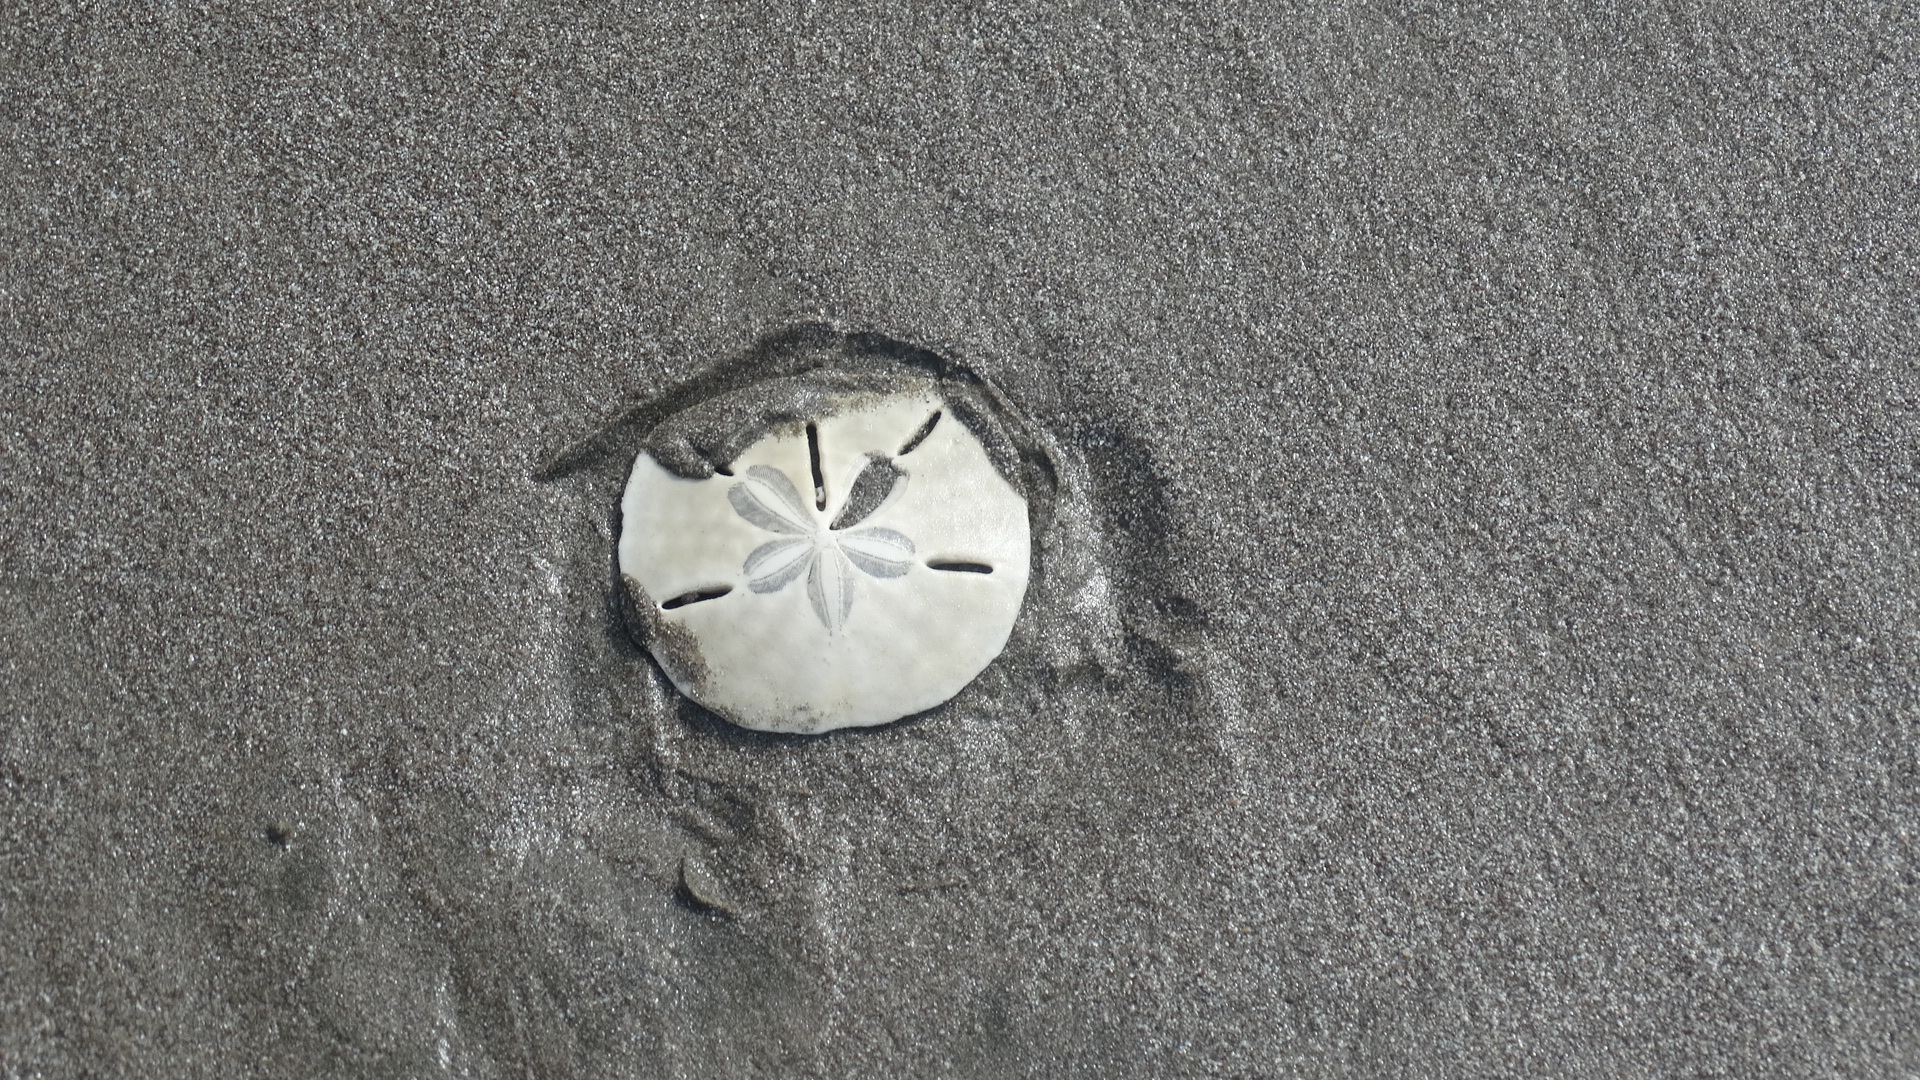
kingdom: Animalia
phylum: Echinodermata
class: Echinoidea
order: Echinolampadacea
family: Mellitidae
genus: Lanthonia
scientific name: Lanthonia longifissa
